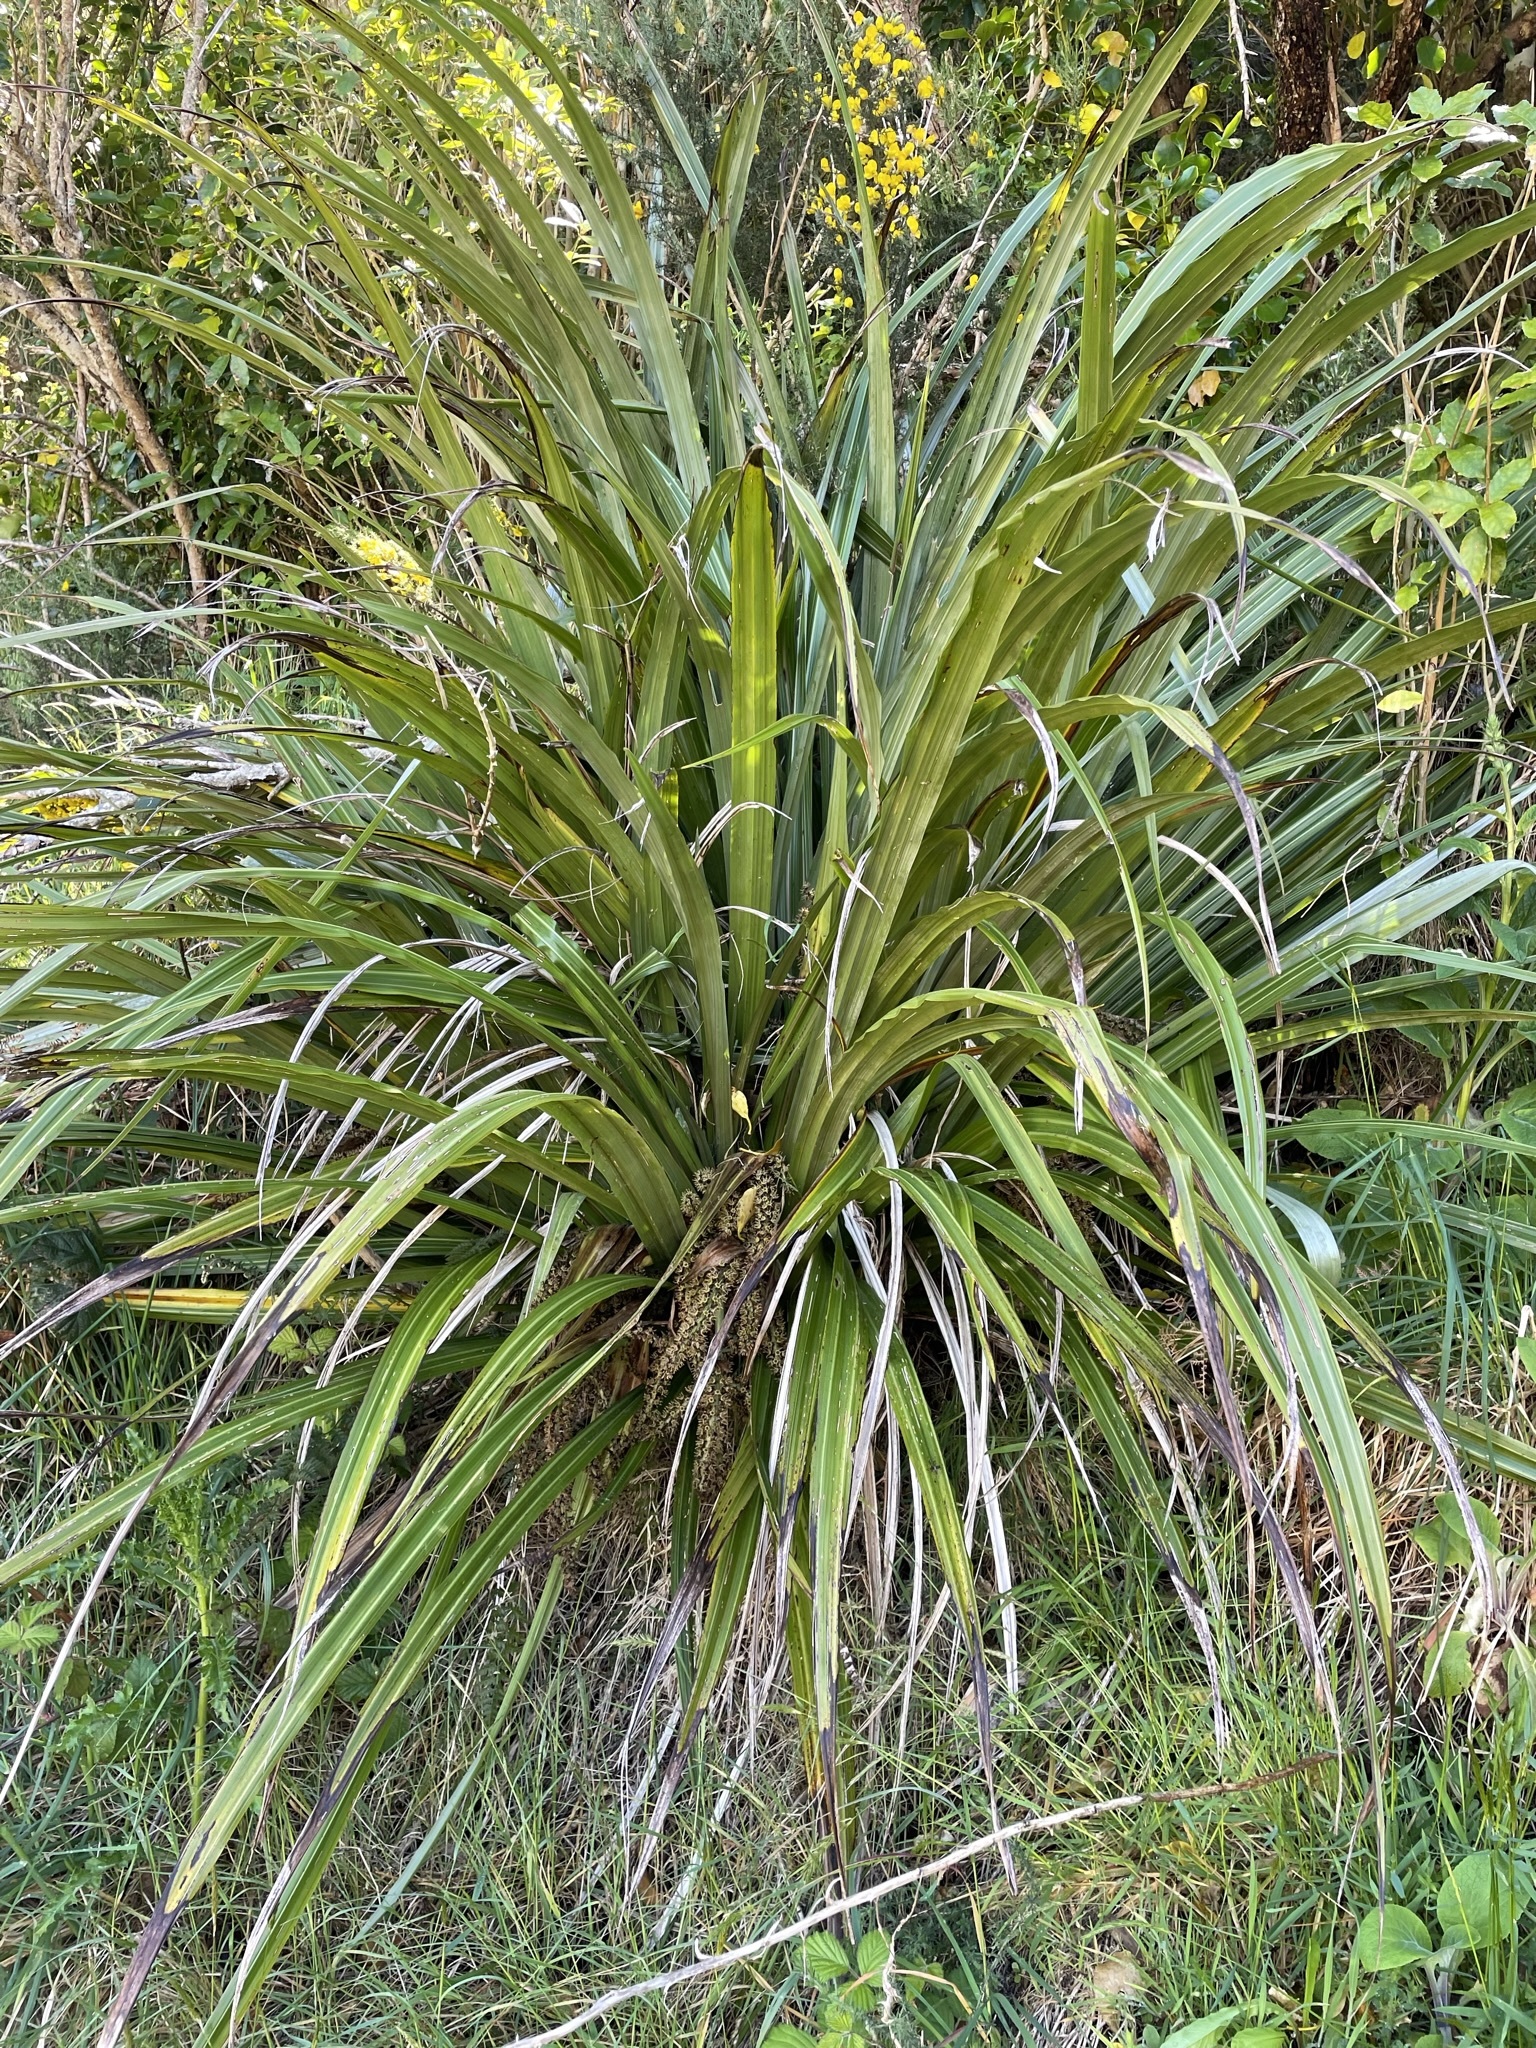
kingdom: Plantae
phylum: Tracheophyta
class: Liliopsida
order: Asparagales
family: Asteliaceae
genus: Astelia
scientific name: Astelia fragrans
